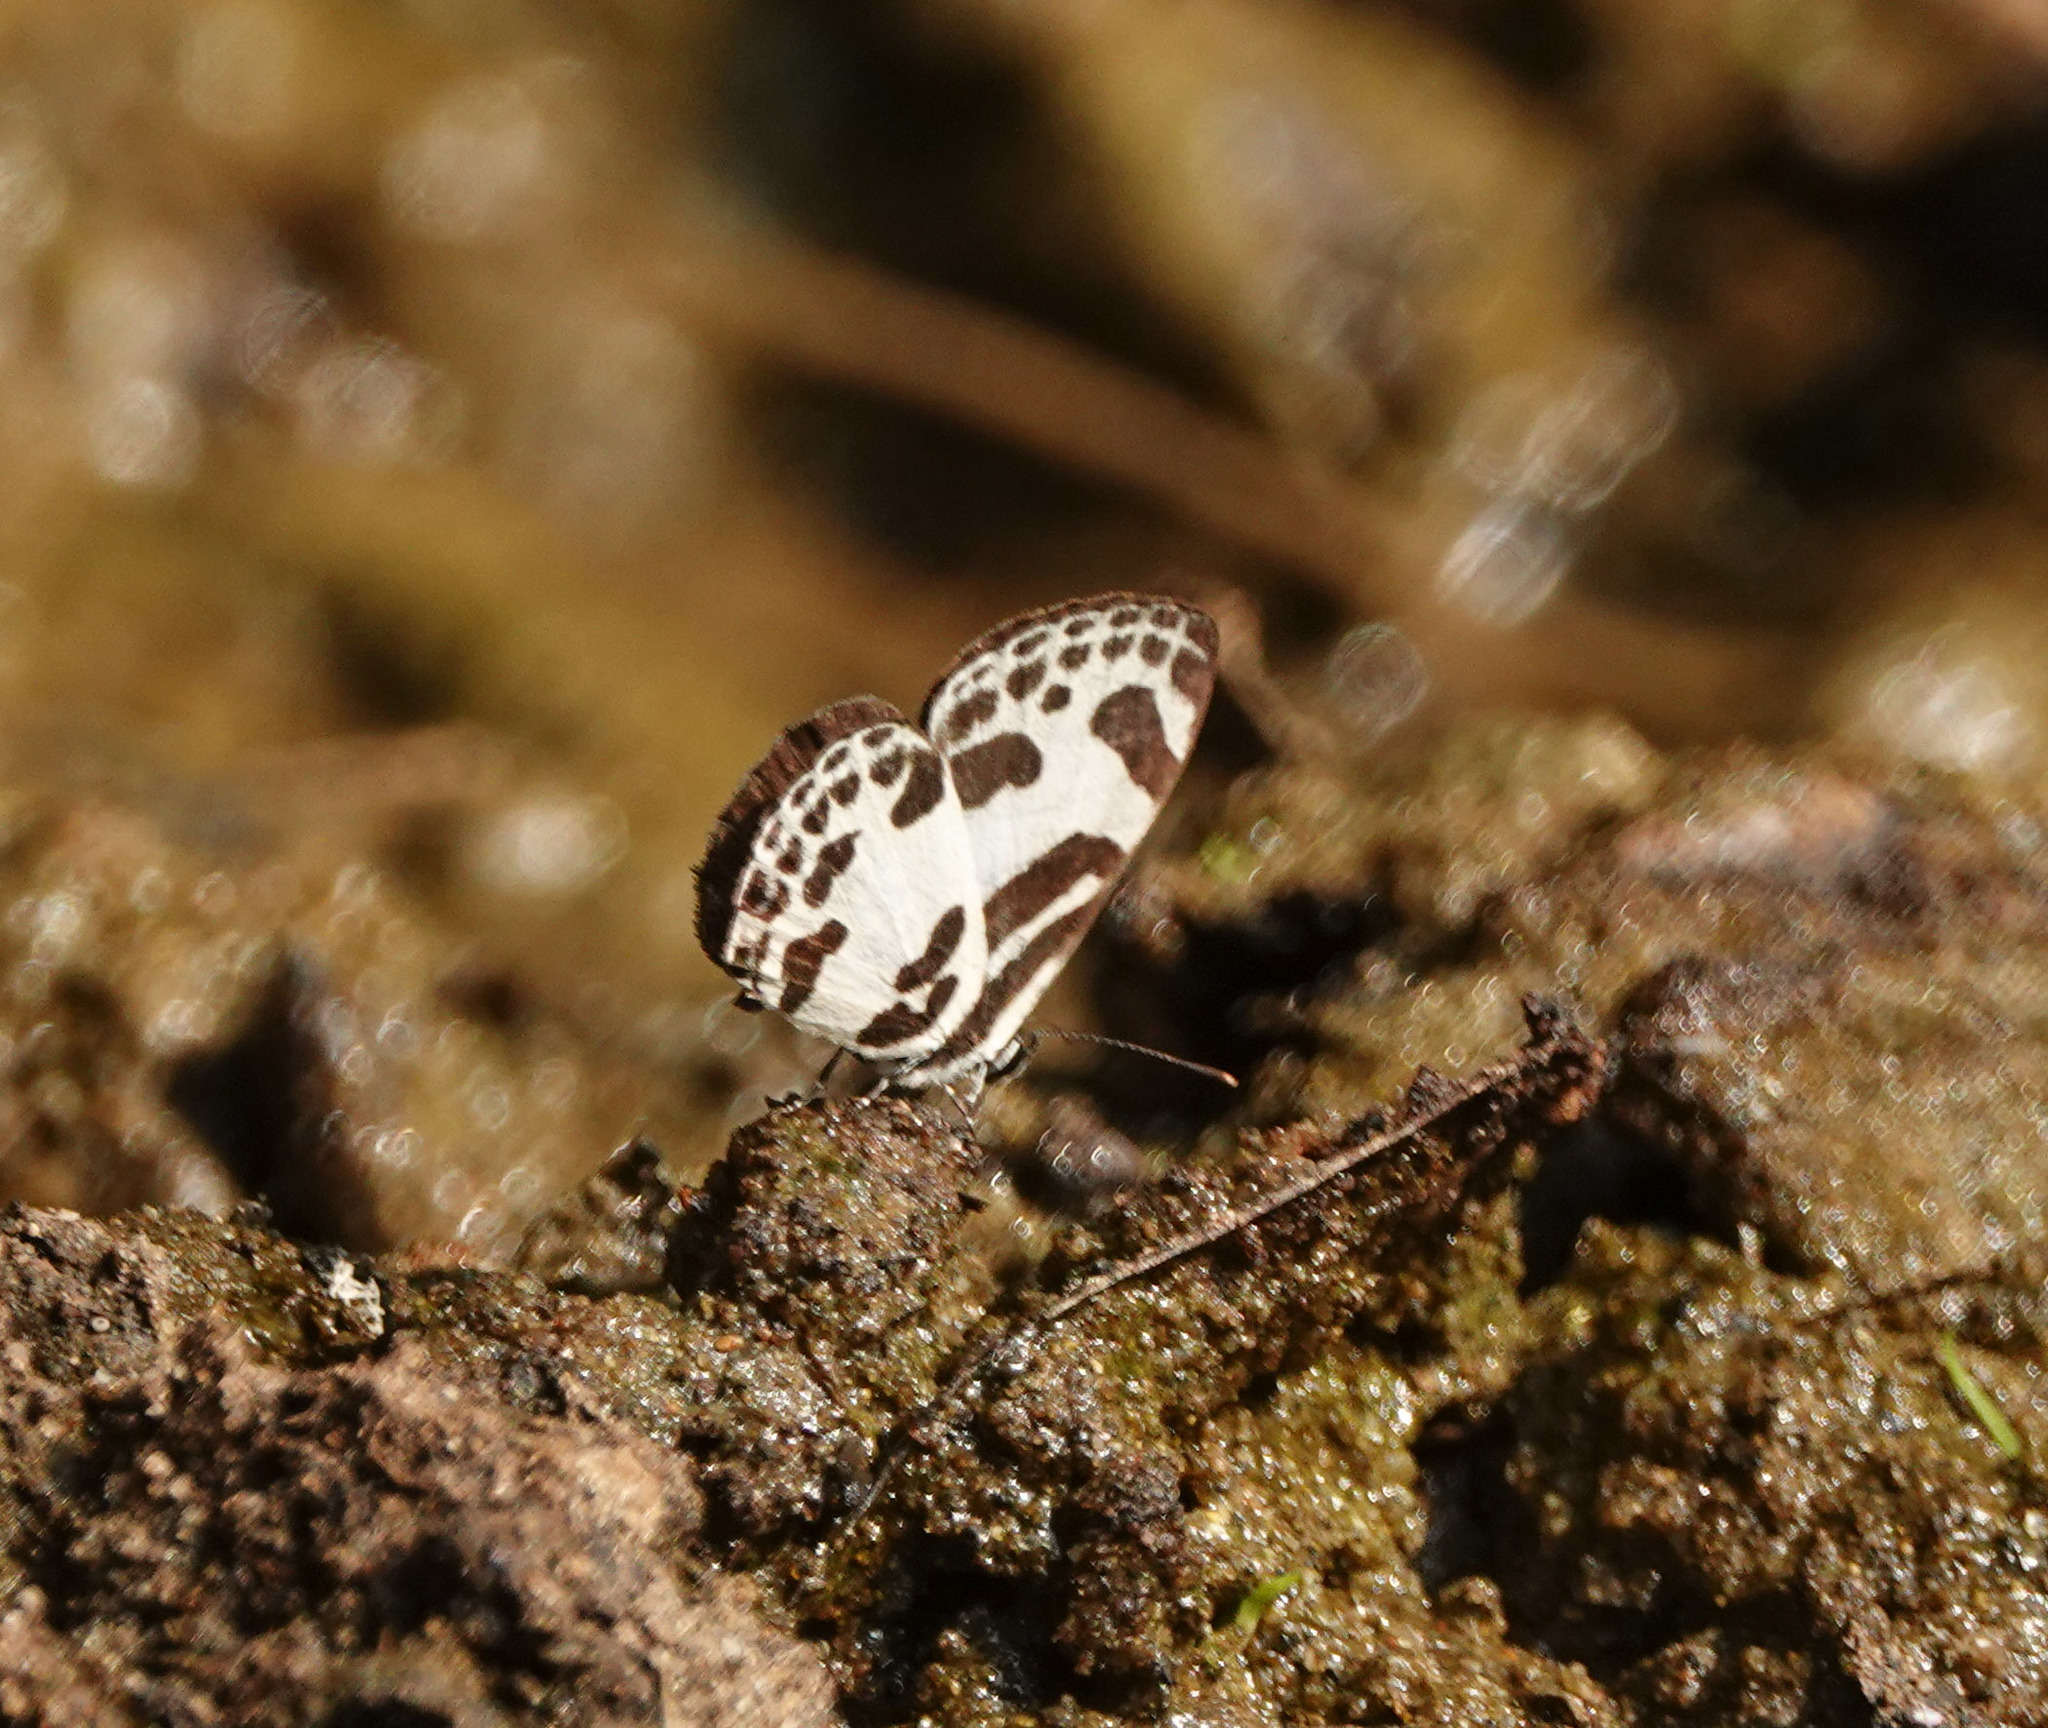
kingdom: Animalia
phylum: Arthropoda
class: Insecta
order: Lepidoptera
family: Lycaenidae
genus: Discolampa
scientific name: Discolampa ethion
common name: Banded blue pierrot
